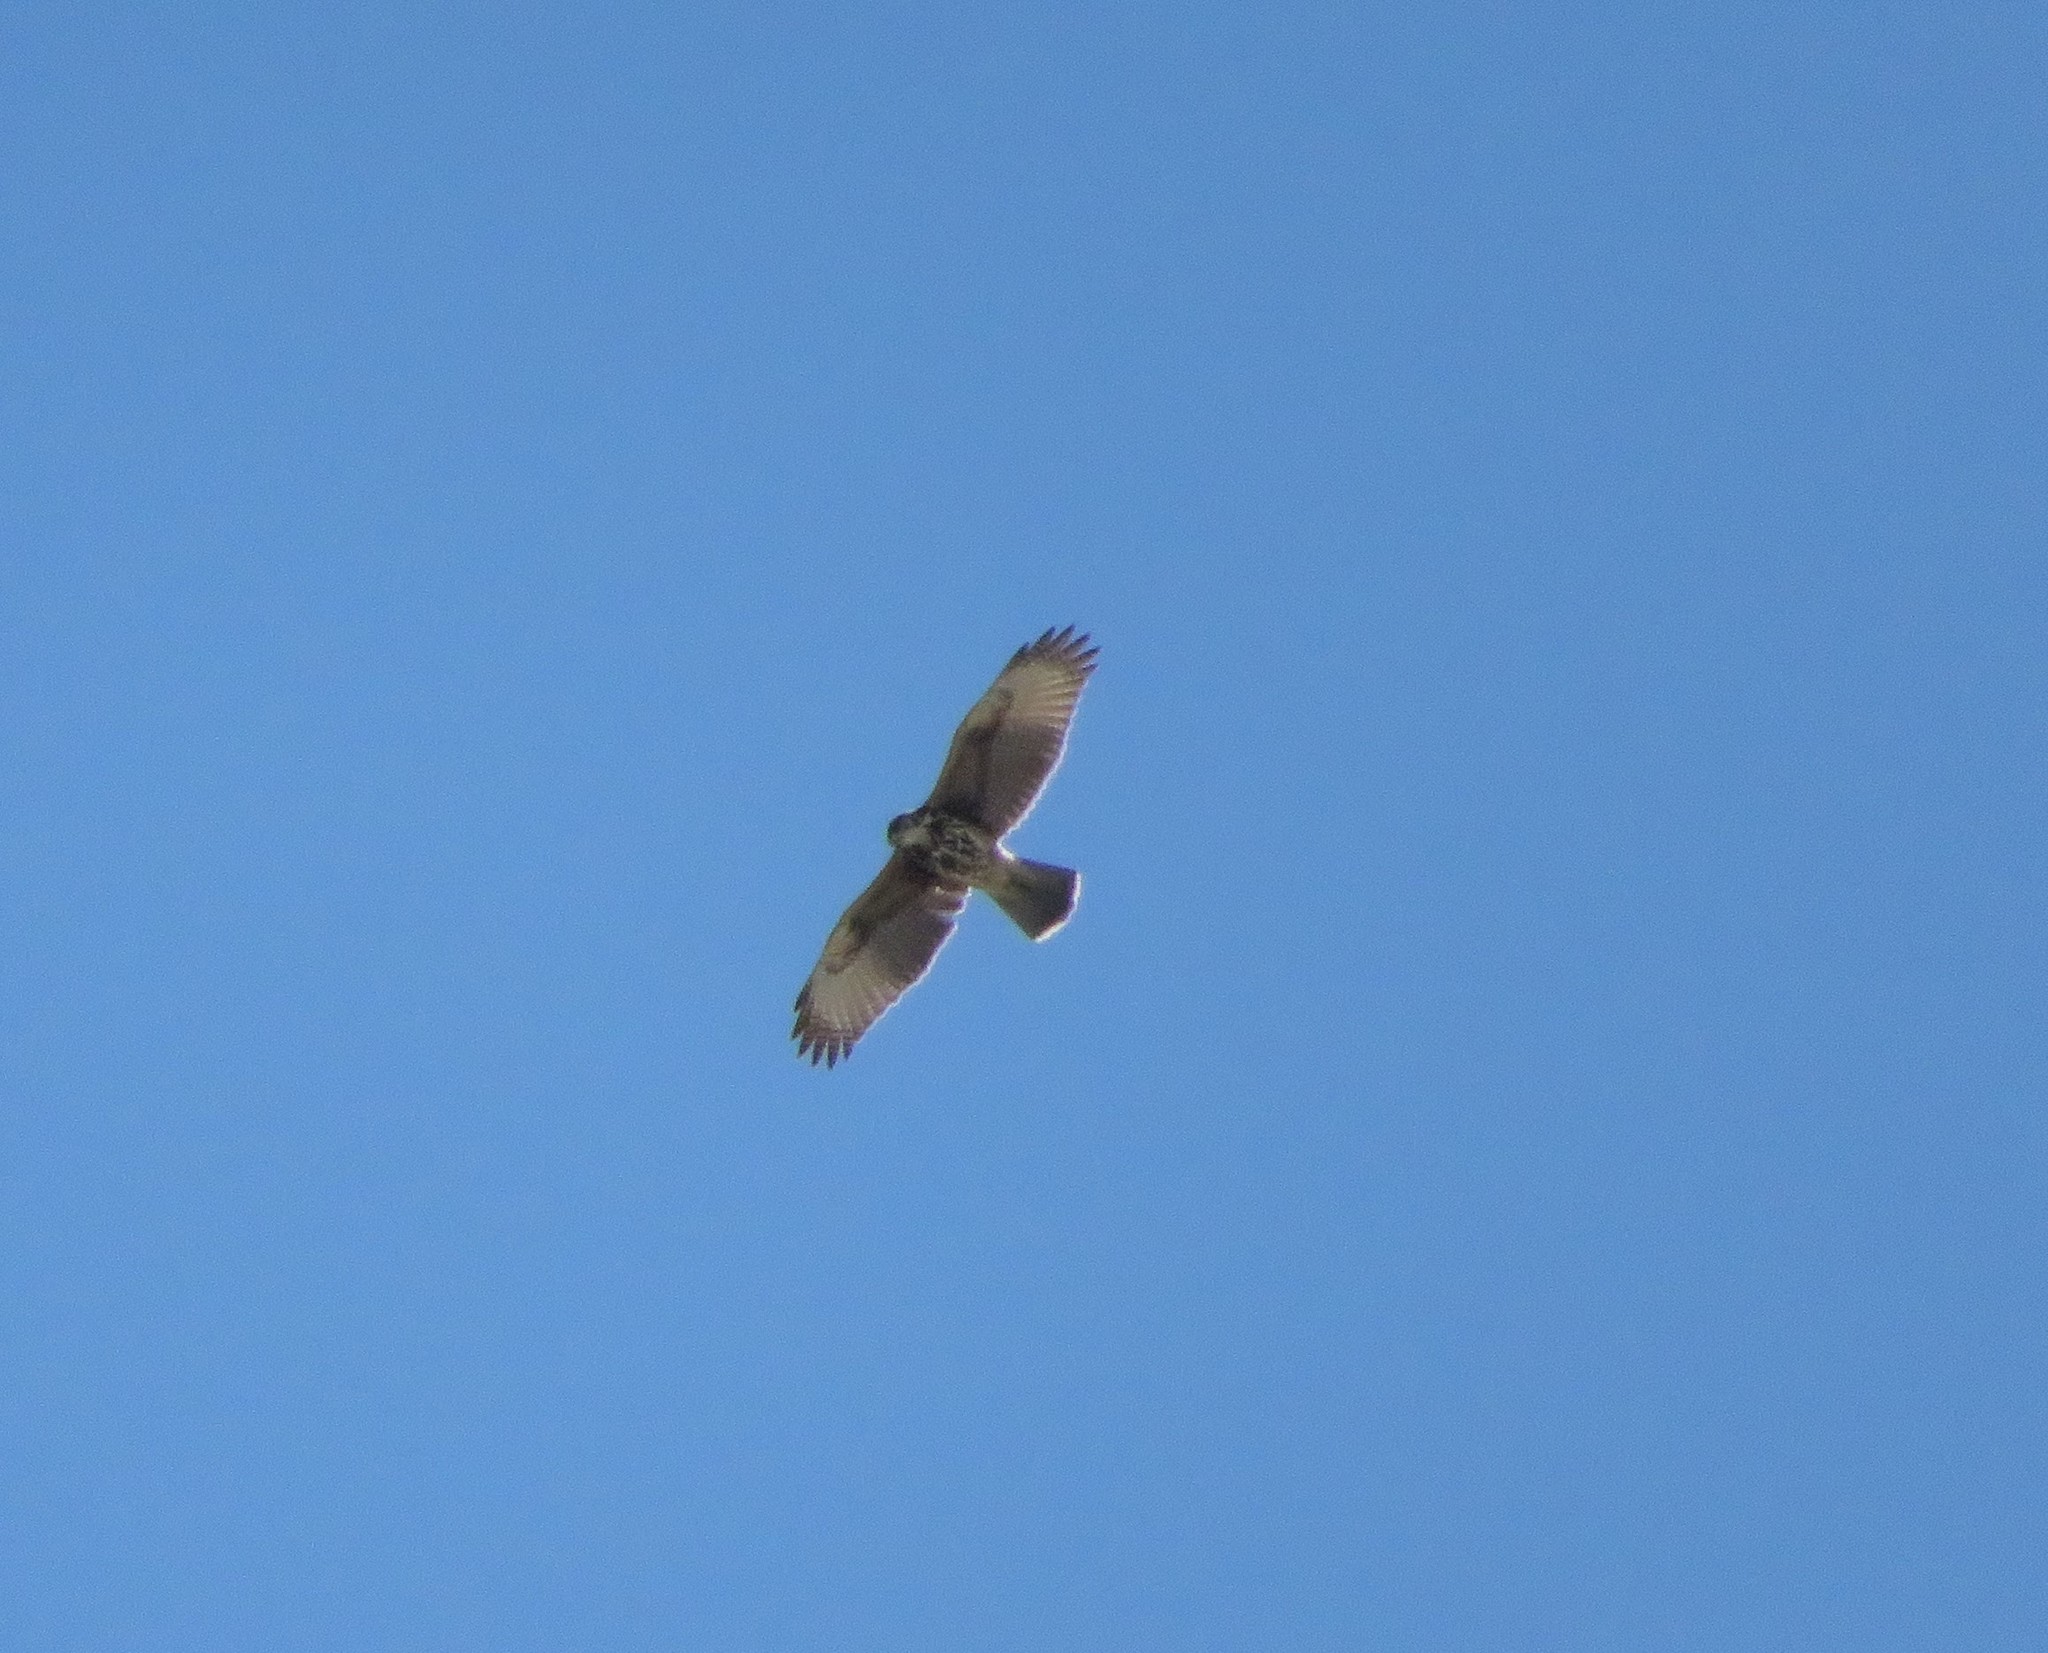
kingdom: Animalia
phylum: Chordata
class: Aves
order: Accipitriformes
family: Accipitridae
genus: Parabuteo
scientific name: Parabuteo unicinctus
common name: Harris's hawk
